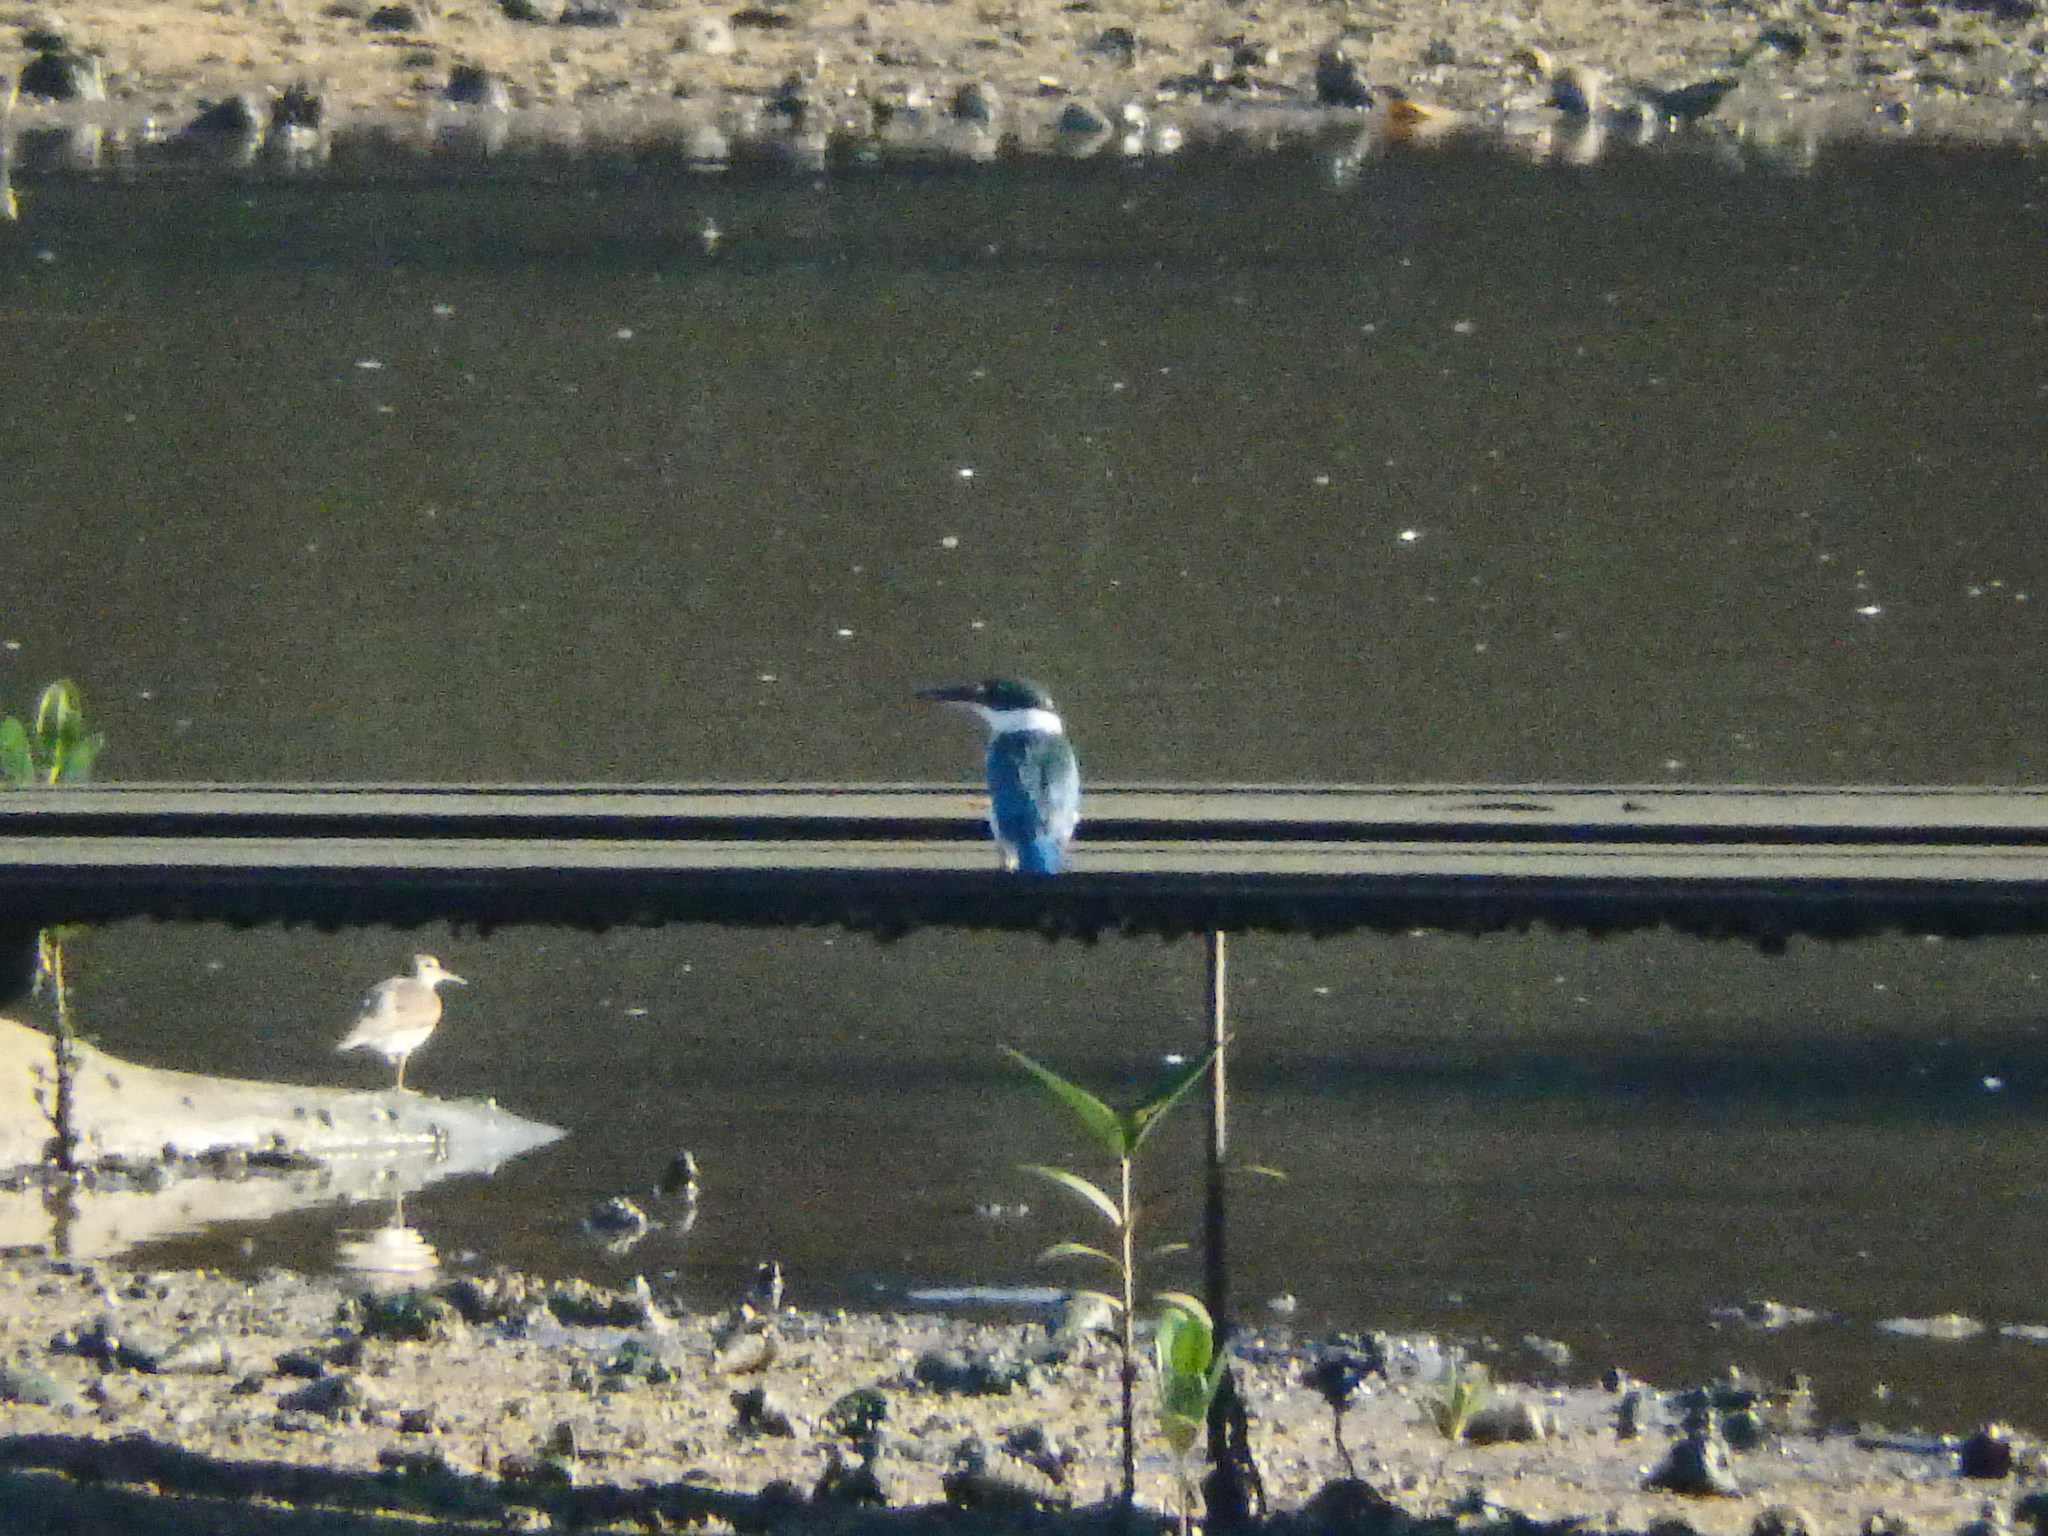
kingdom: Animalia
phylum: Chordata
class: Aves
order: Coraciiformes
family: Alcedinidae
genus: Todiramphus
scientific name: Todiramphus chloris
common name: Collared kingfisher
